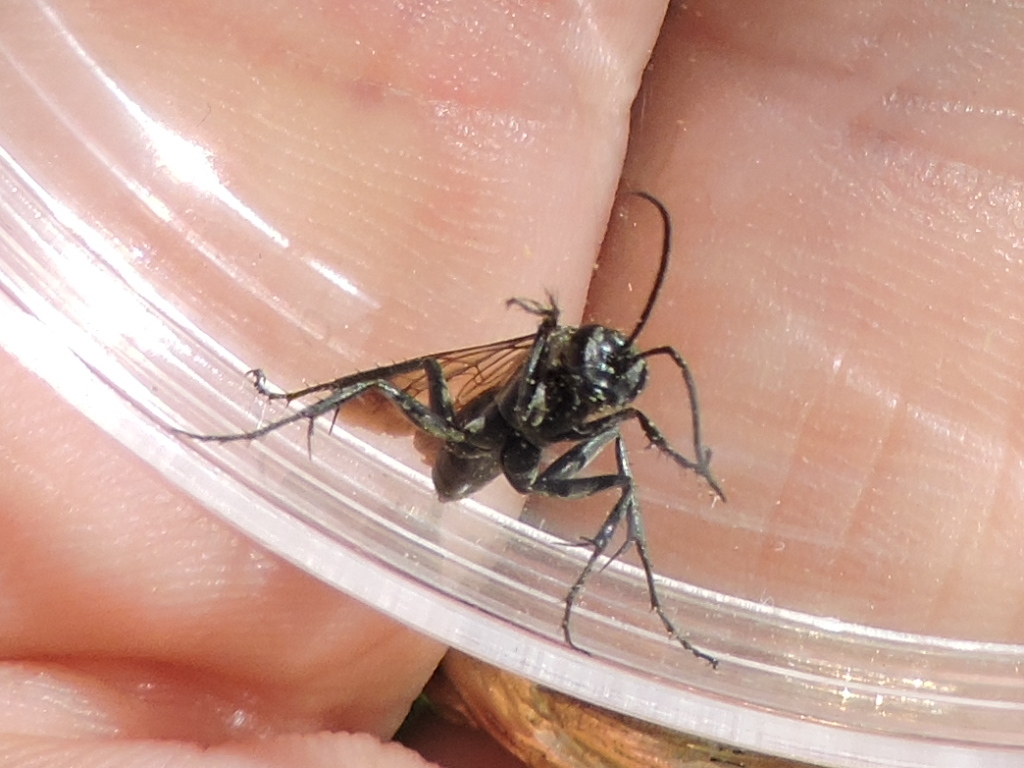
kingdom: Animalia
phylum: Arthropoda
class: Insecta
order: Hymenoptera
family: Pompilidae
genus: Episyron
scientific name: Episyron biguttatus
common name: Two-spotted spider wasp
